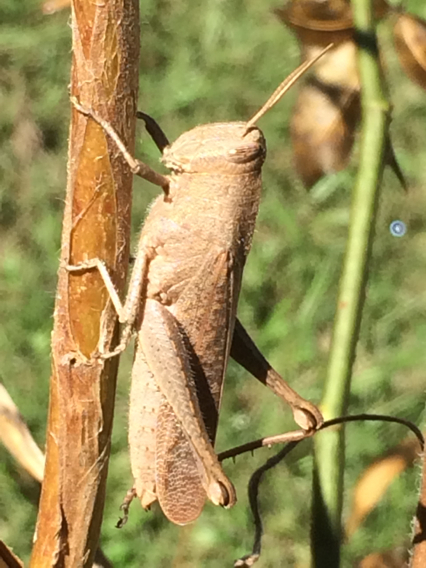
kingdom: Animalia
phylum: Arthropoda
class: Insecta
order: Orthoptera
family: Acrididae
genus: Schistocerca
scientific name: Schistocerca damnifica
